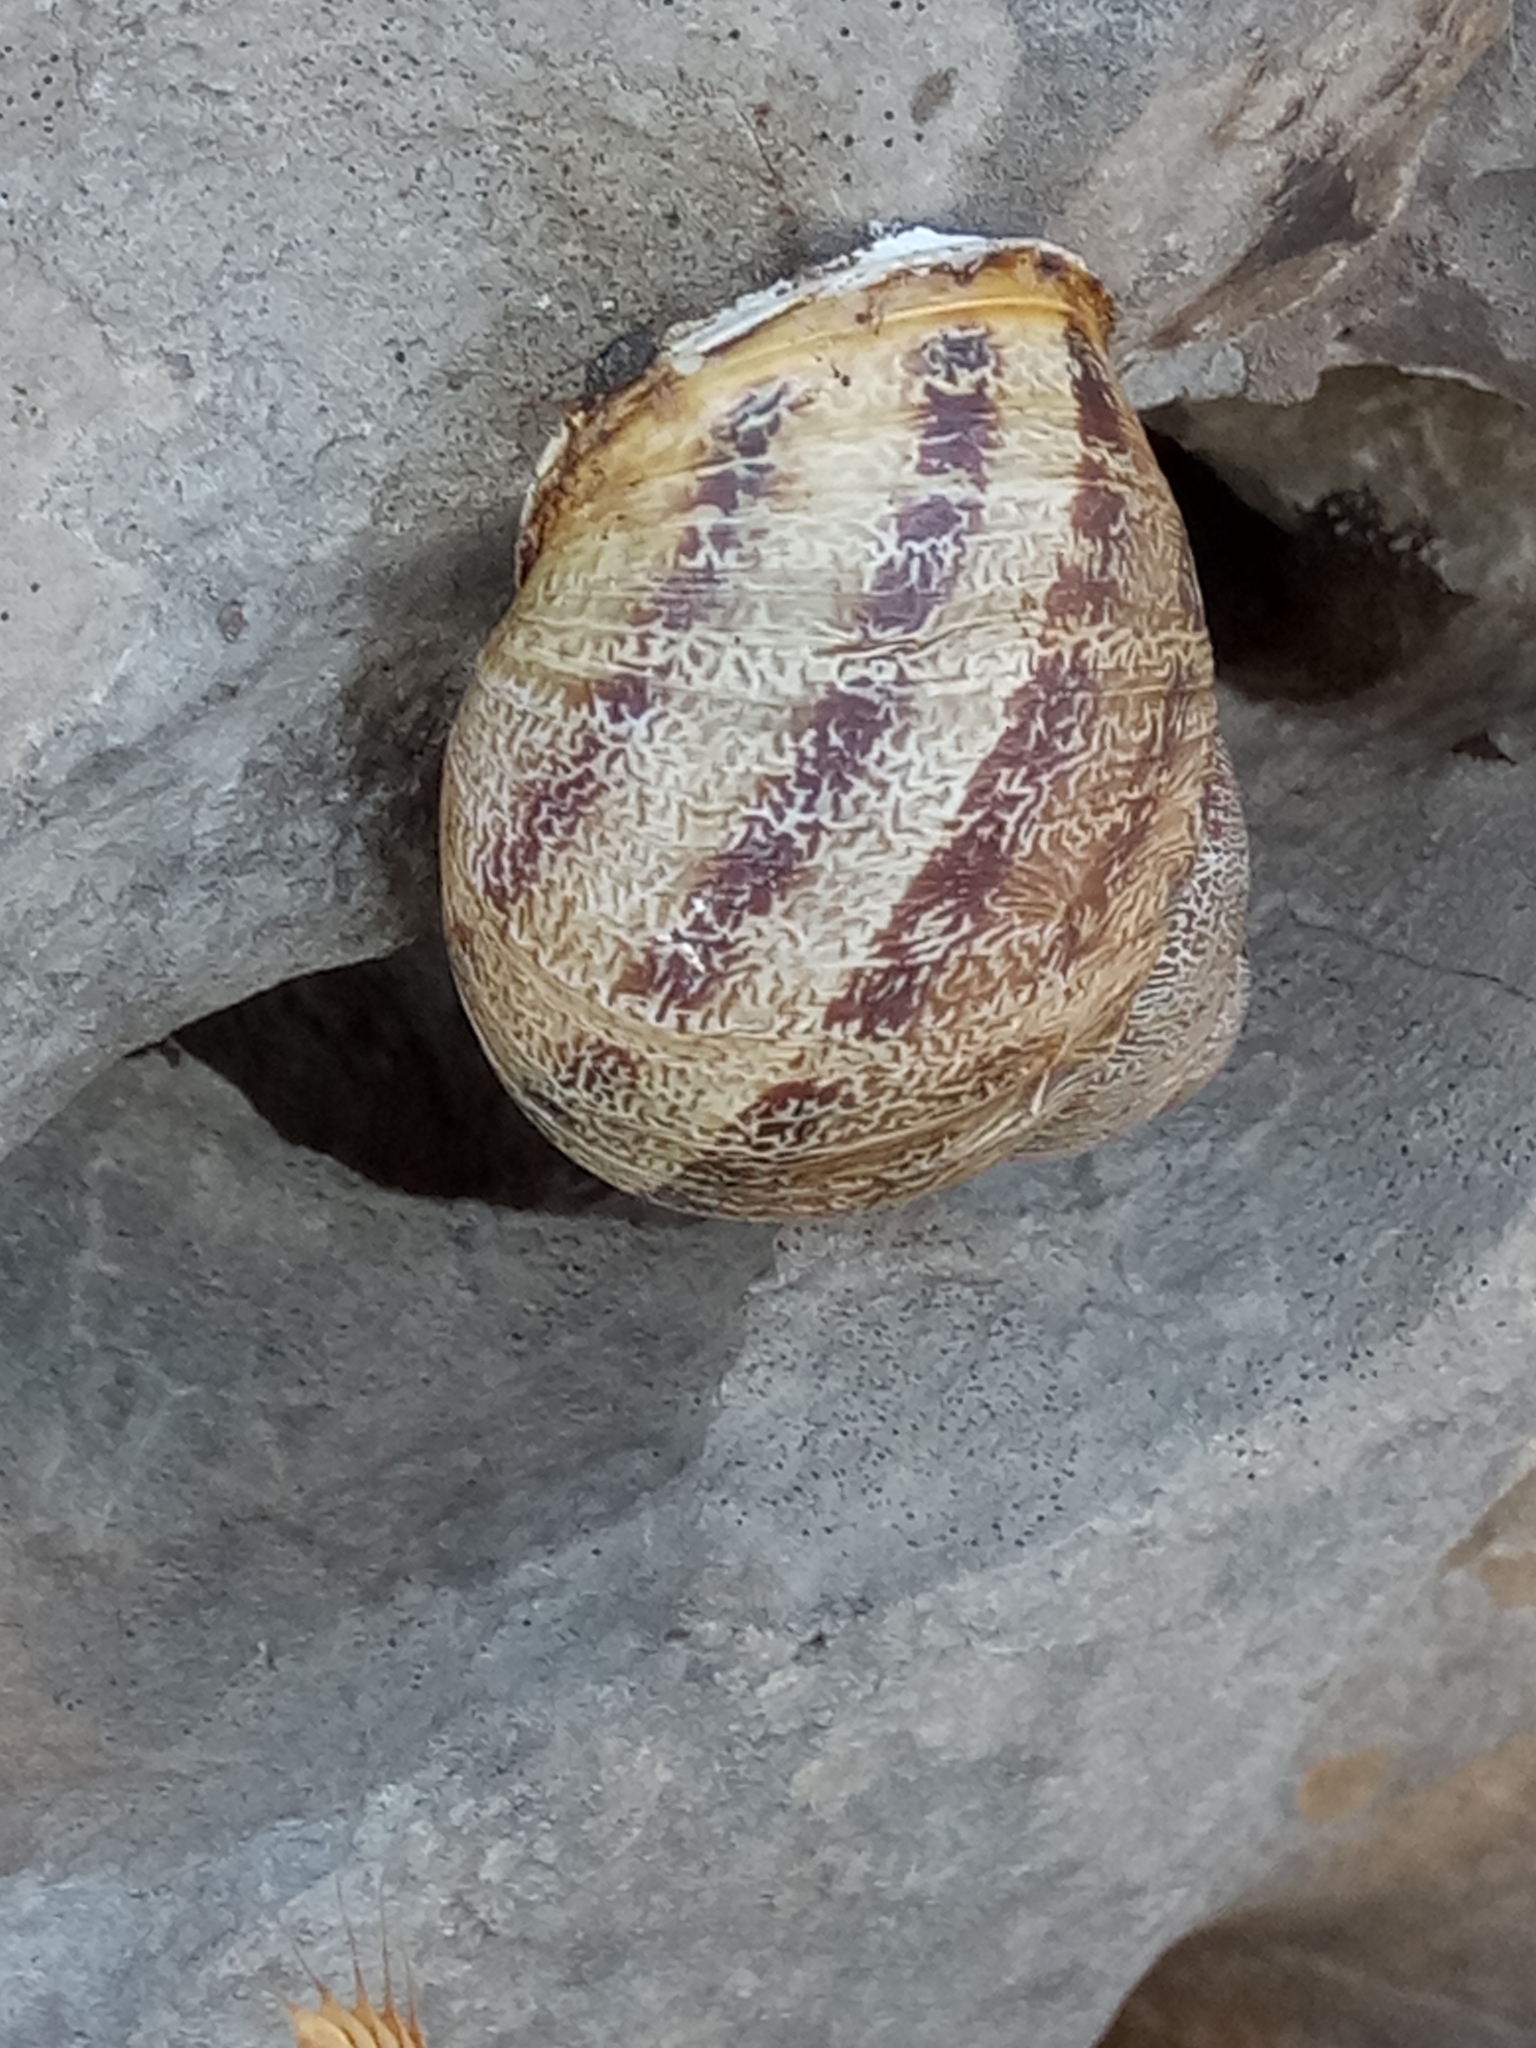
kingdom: Animalia
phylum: Mollusca
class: Gastropoda
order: Stylommatophora
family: Helicidae
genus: Cornu
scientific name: Cornu aspersum
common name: Brown garden snail
